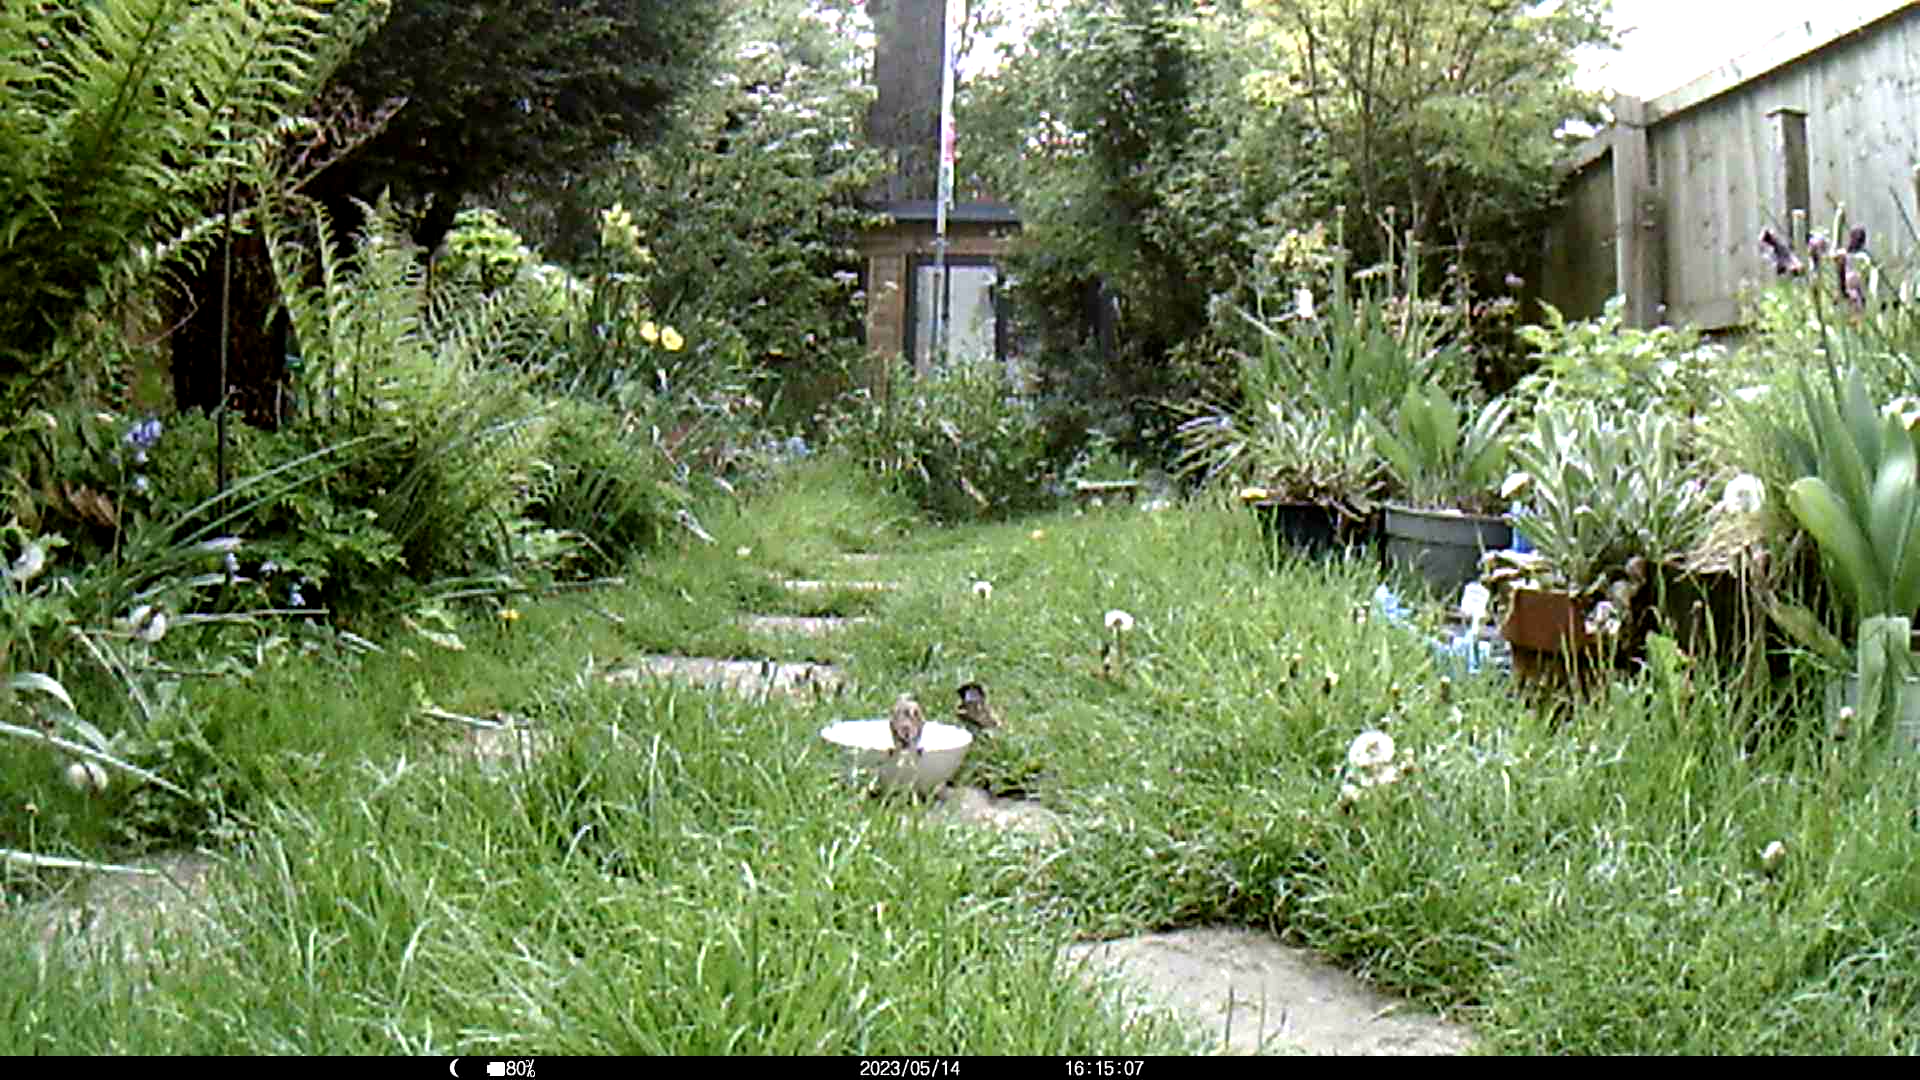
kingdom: Animalia
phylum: Chordata
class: Aves
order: Passeriformes
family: Passeridae
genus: Passer
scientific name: Passer domesticus
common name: House sparrow
